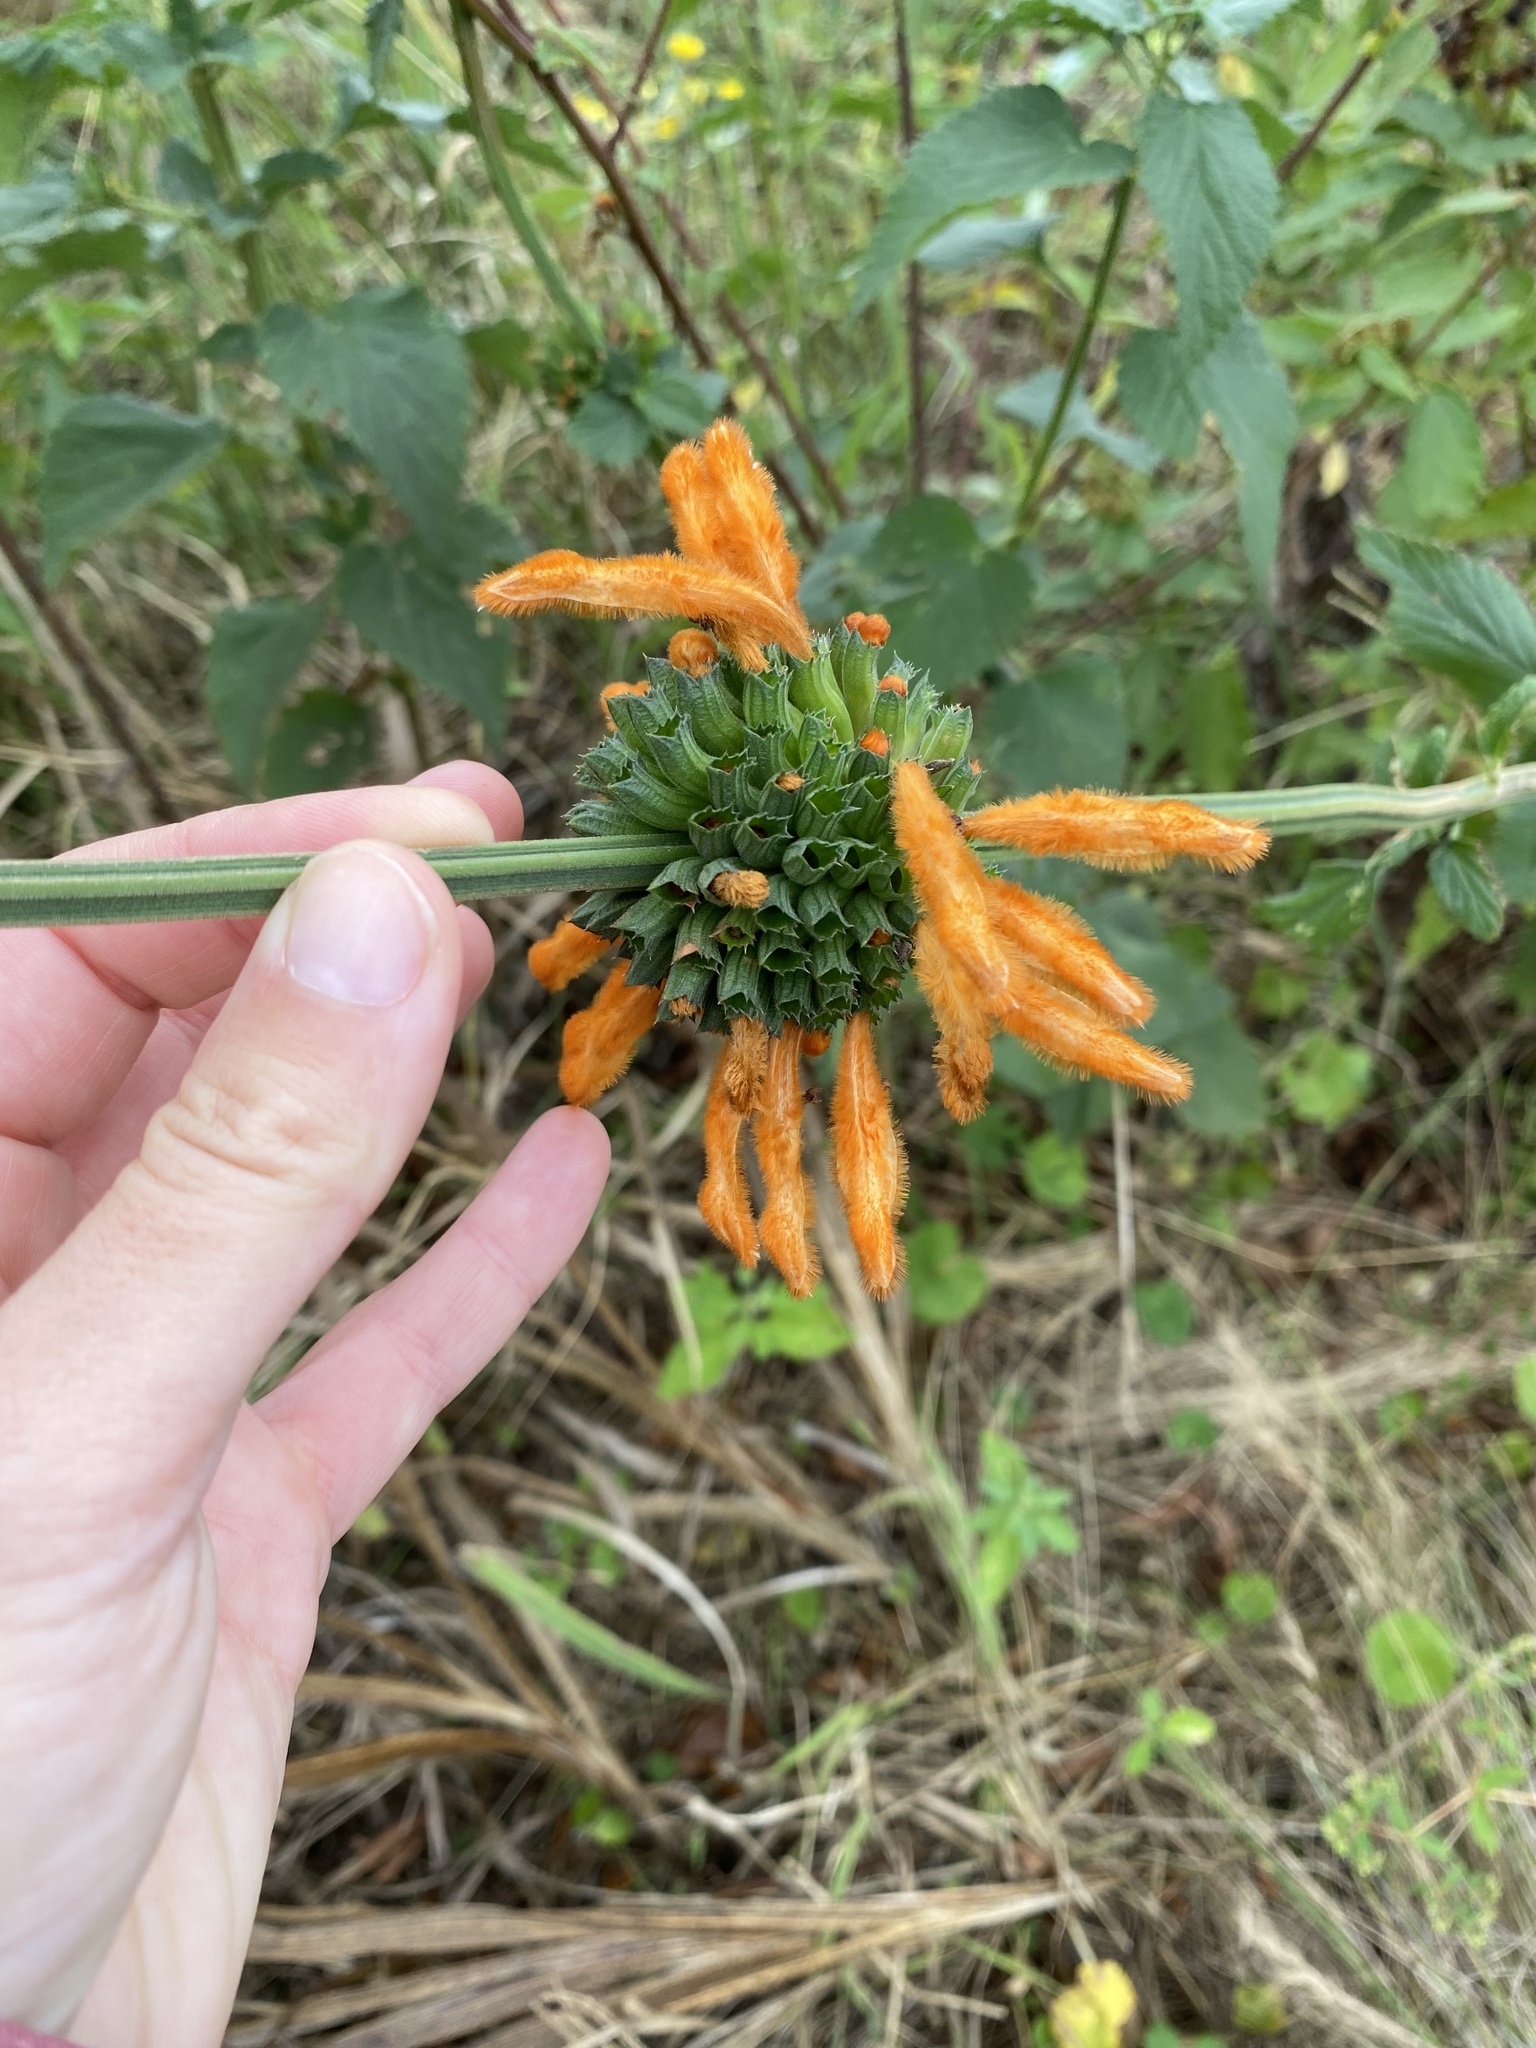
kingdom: Plantae
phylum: Tracheophyta
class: Magnoliopsida
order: Lamiales
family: Lamiaceae
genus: Leonotis
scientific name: Leonotis ocymifolia
